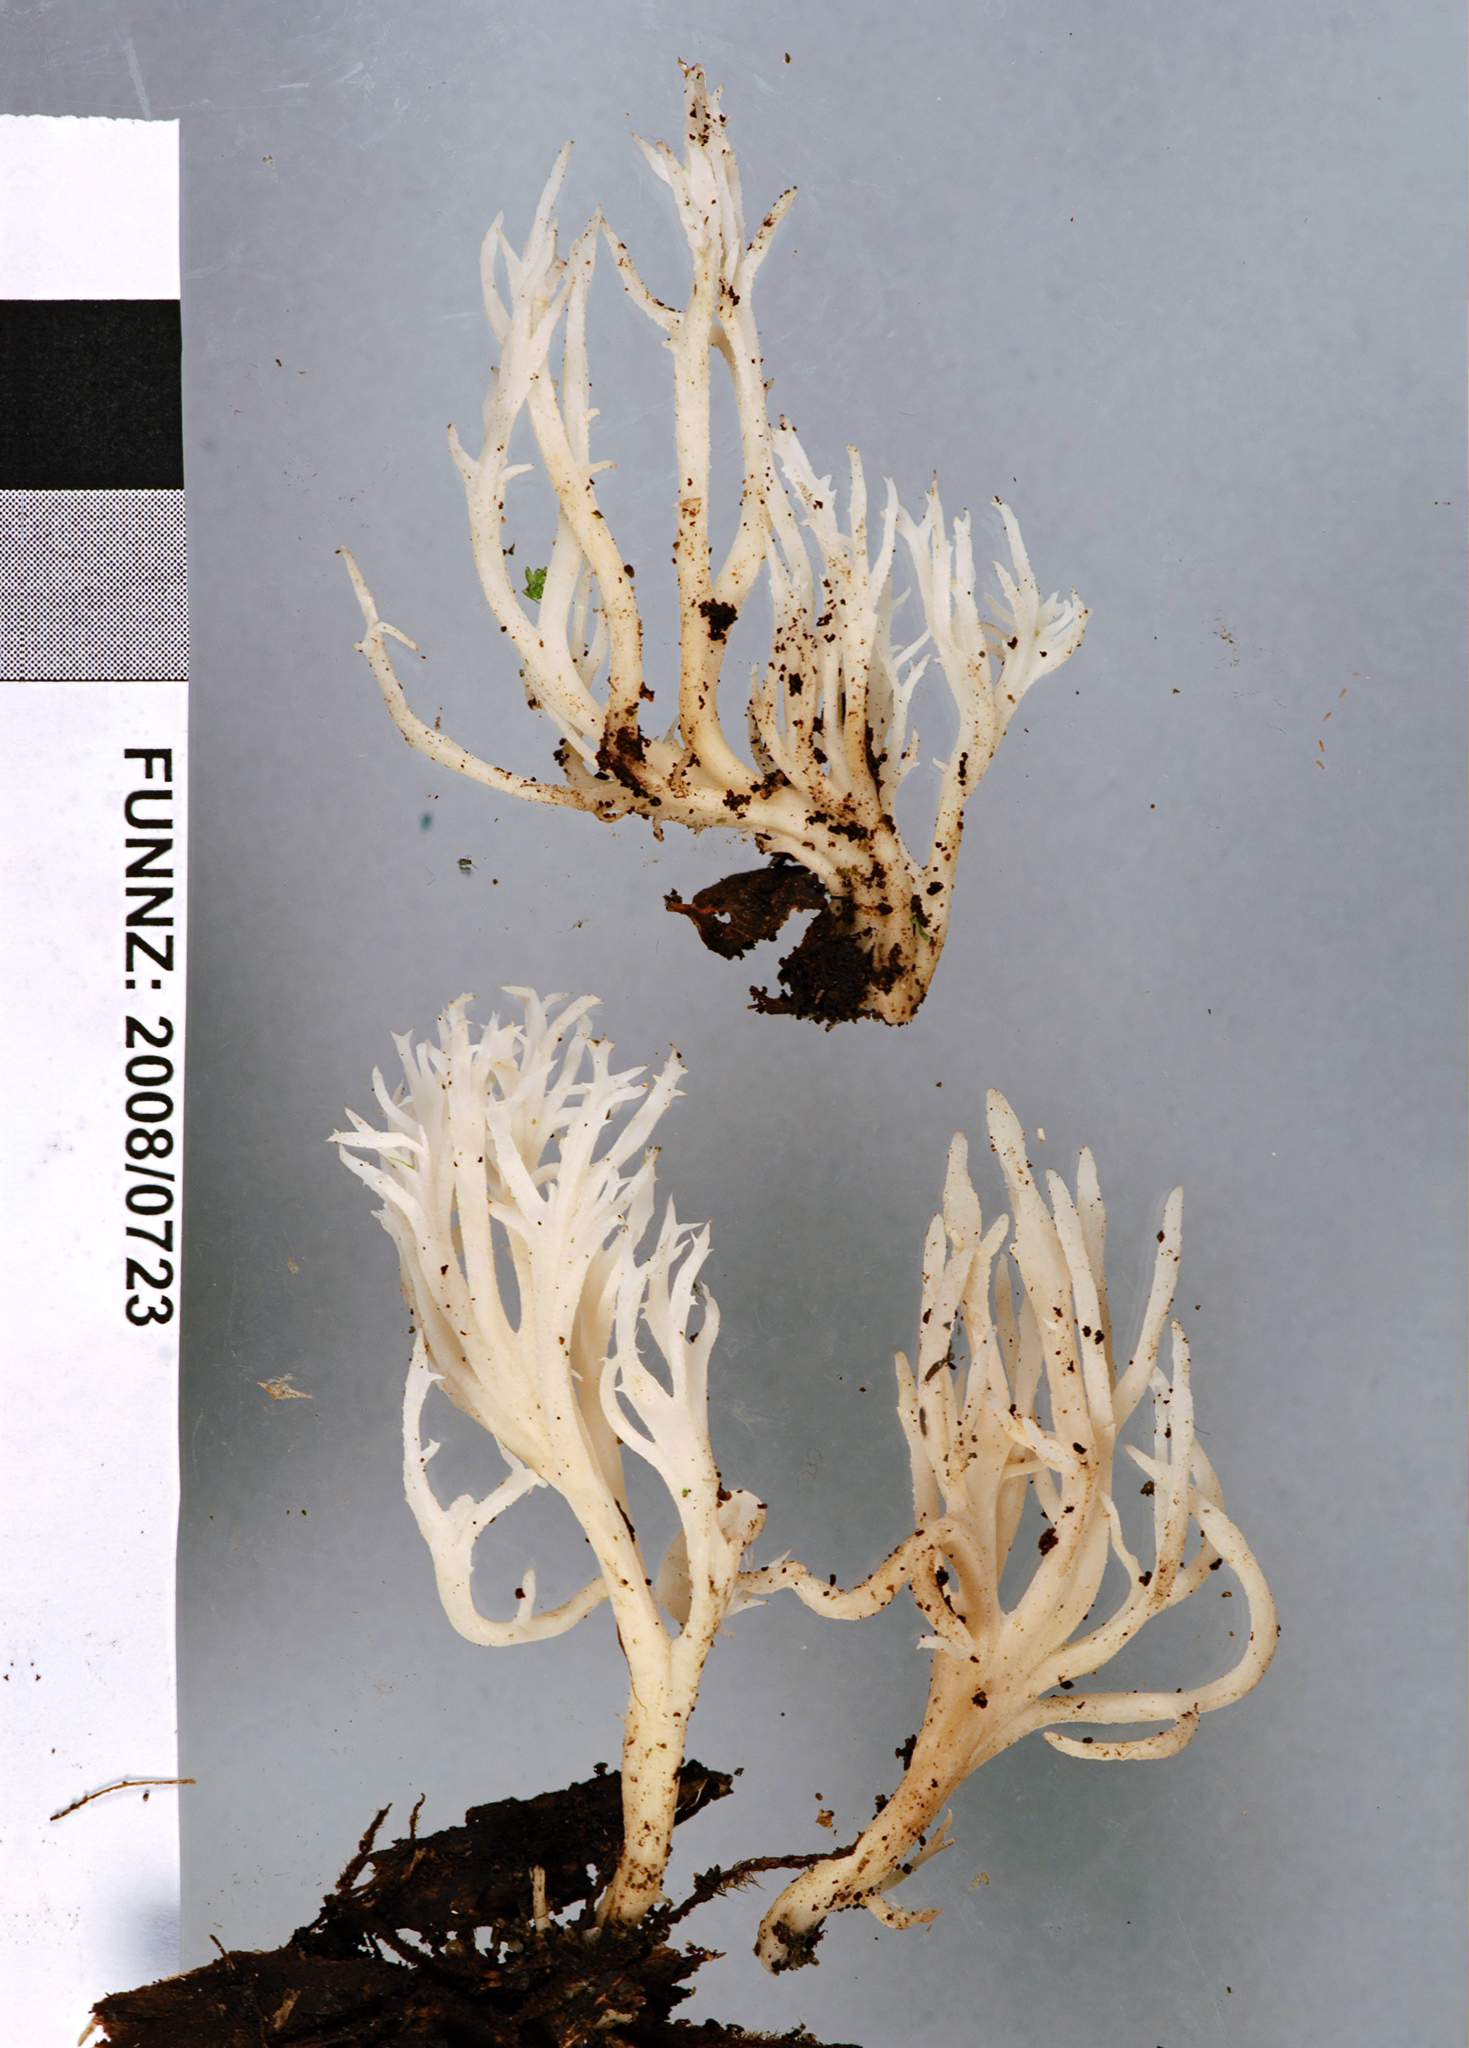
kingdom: Fungi
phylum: Basidiomycota
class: Agaricomycetes
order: Cantharellales
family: Hydnaceae
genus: Clavulina
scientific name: Clavulina
